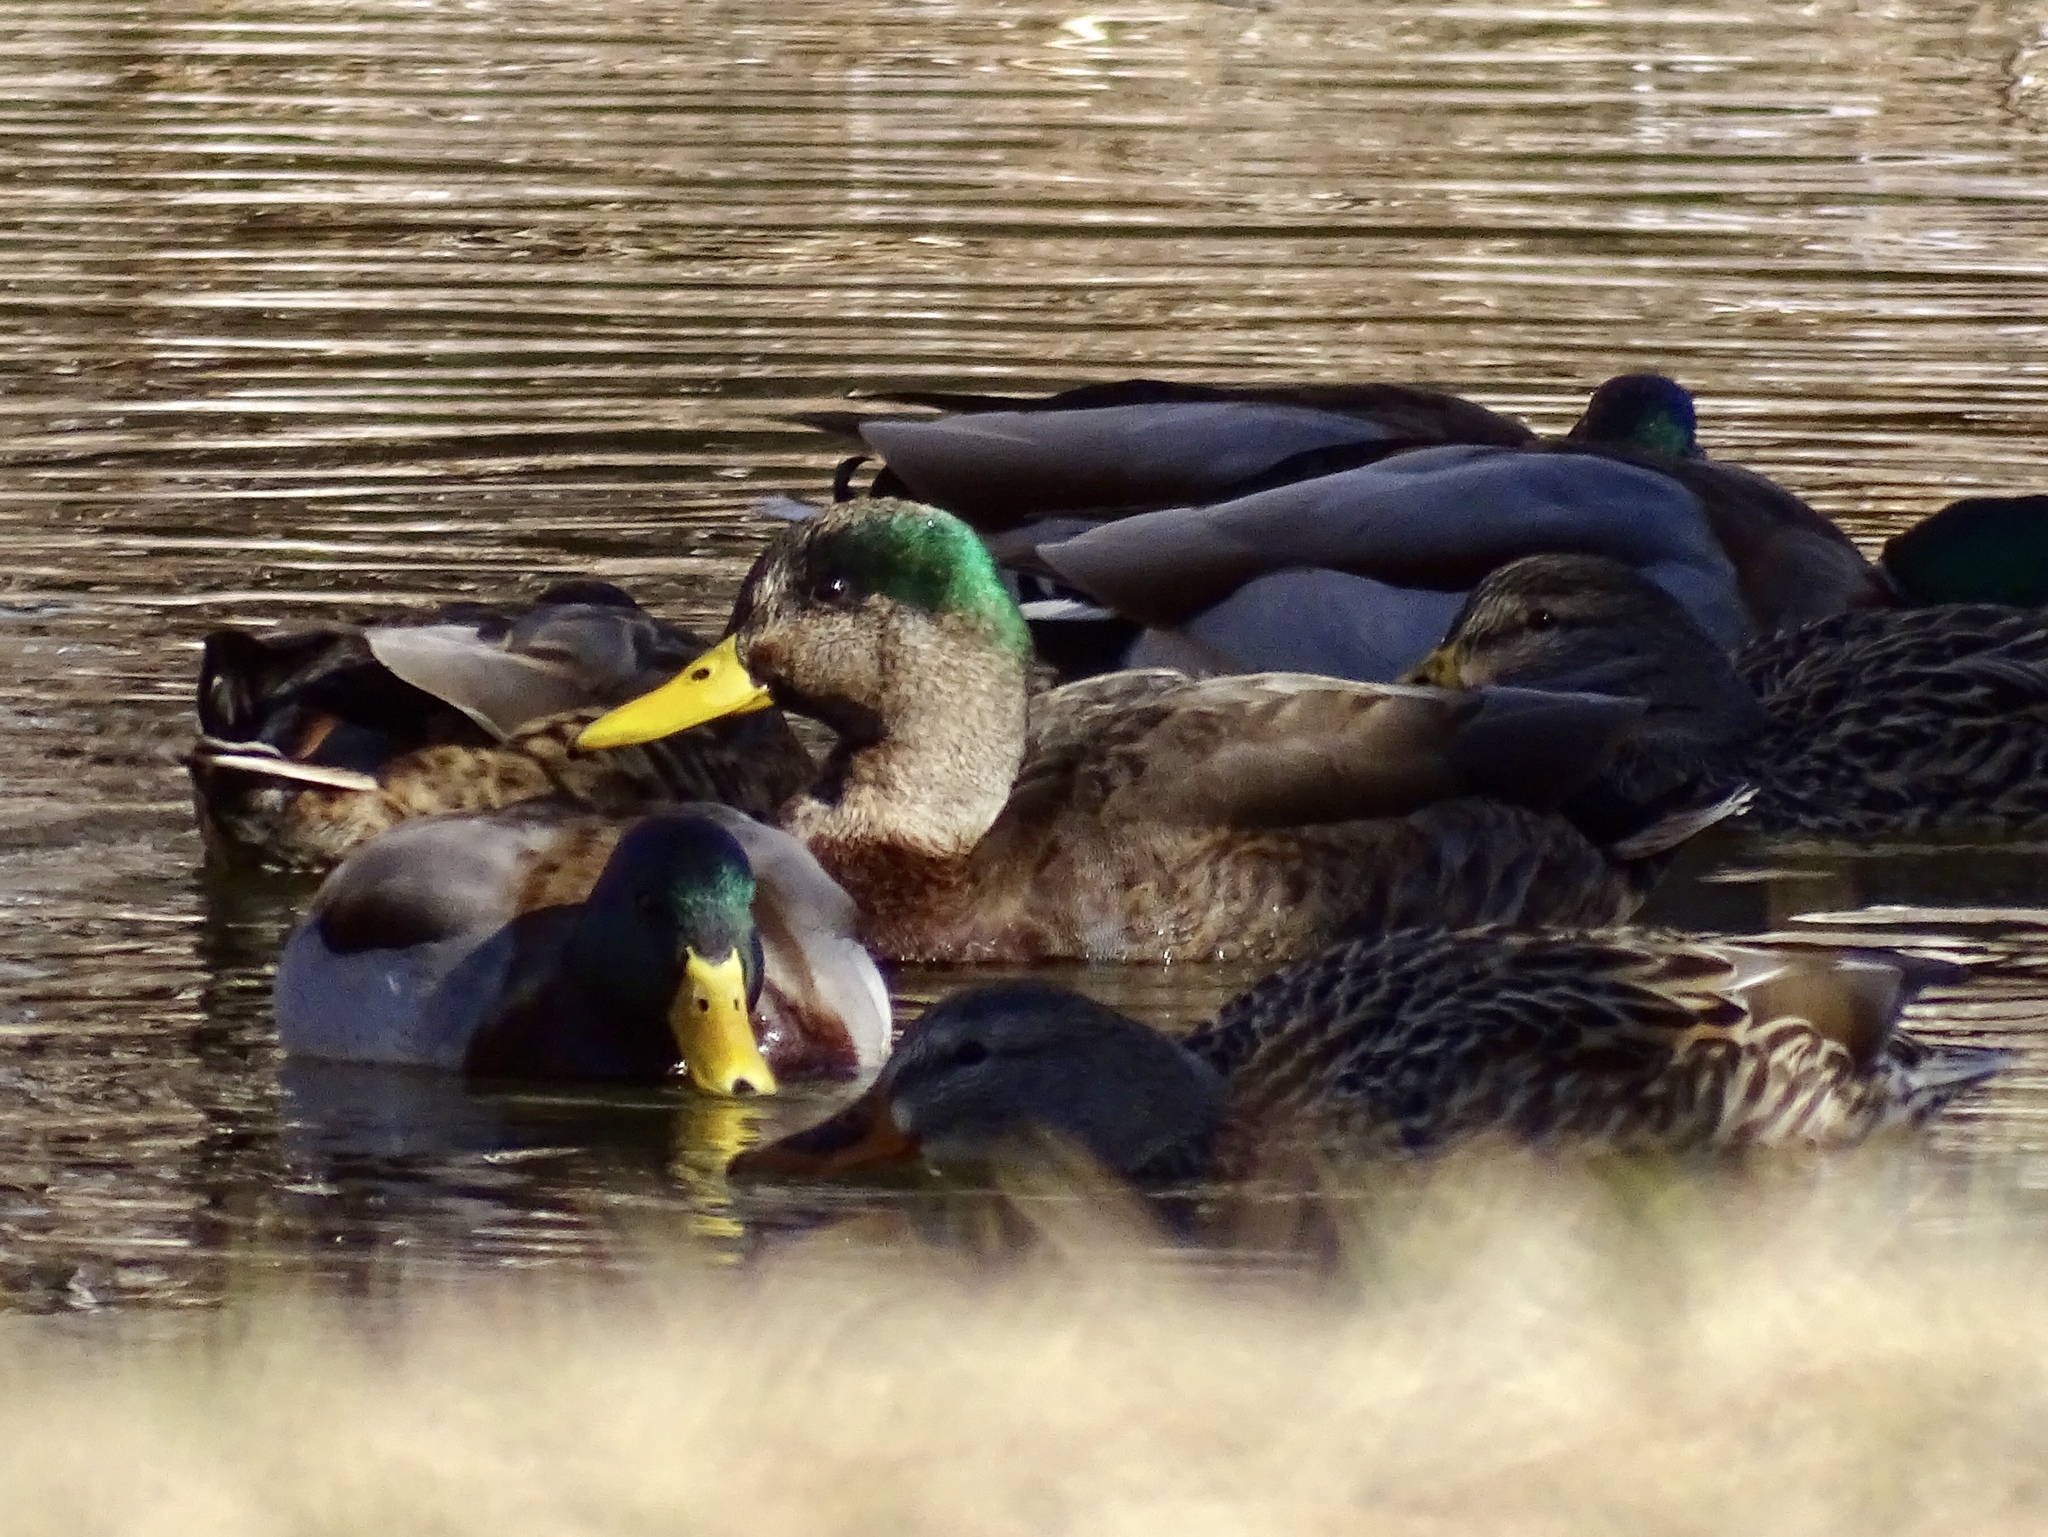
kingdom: Animalia
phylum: Chordata
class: Aves
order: Anseriformes
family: Anatidae
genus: Anas
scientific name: Anas
